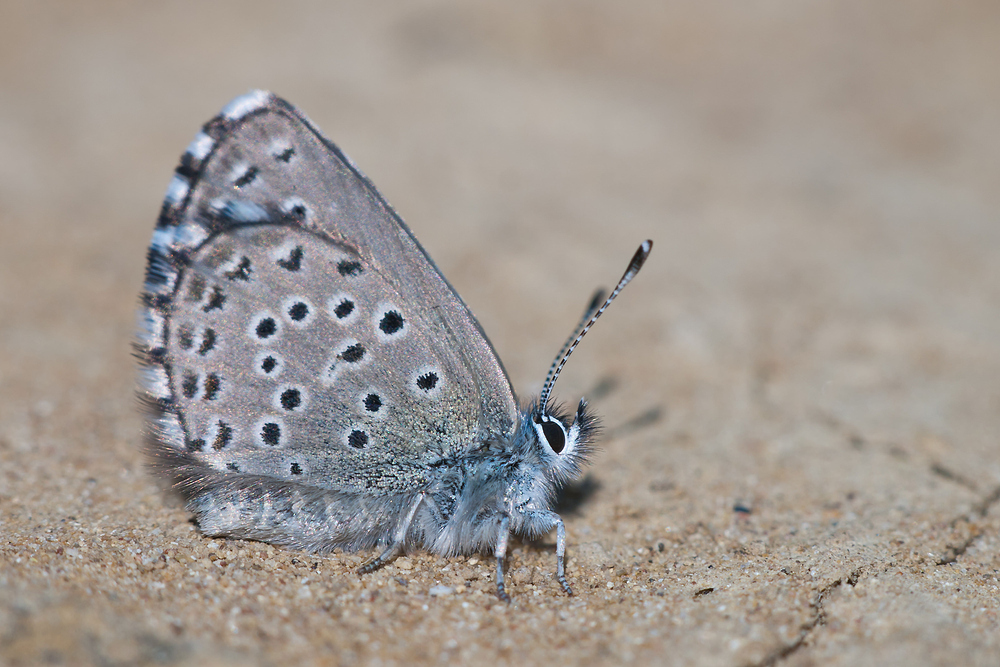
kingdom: Animalia
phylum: Arthropoda
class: Insecta
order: Lepidoptera
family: Lycaenidae
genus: Pseudophilotes
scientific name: Pseudophilotes baton
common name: Baton blue
